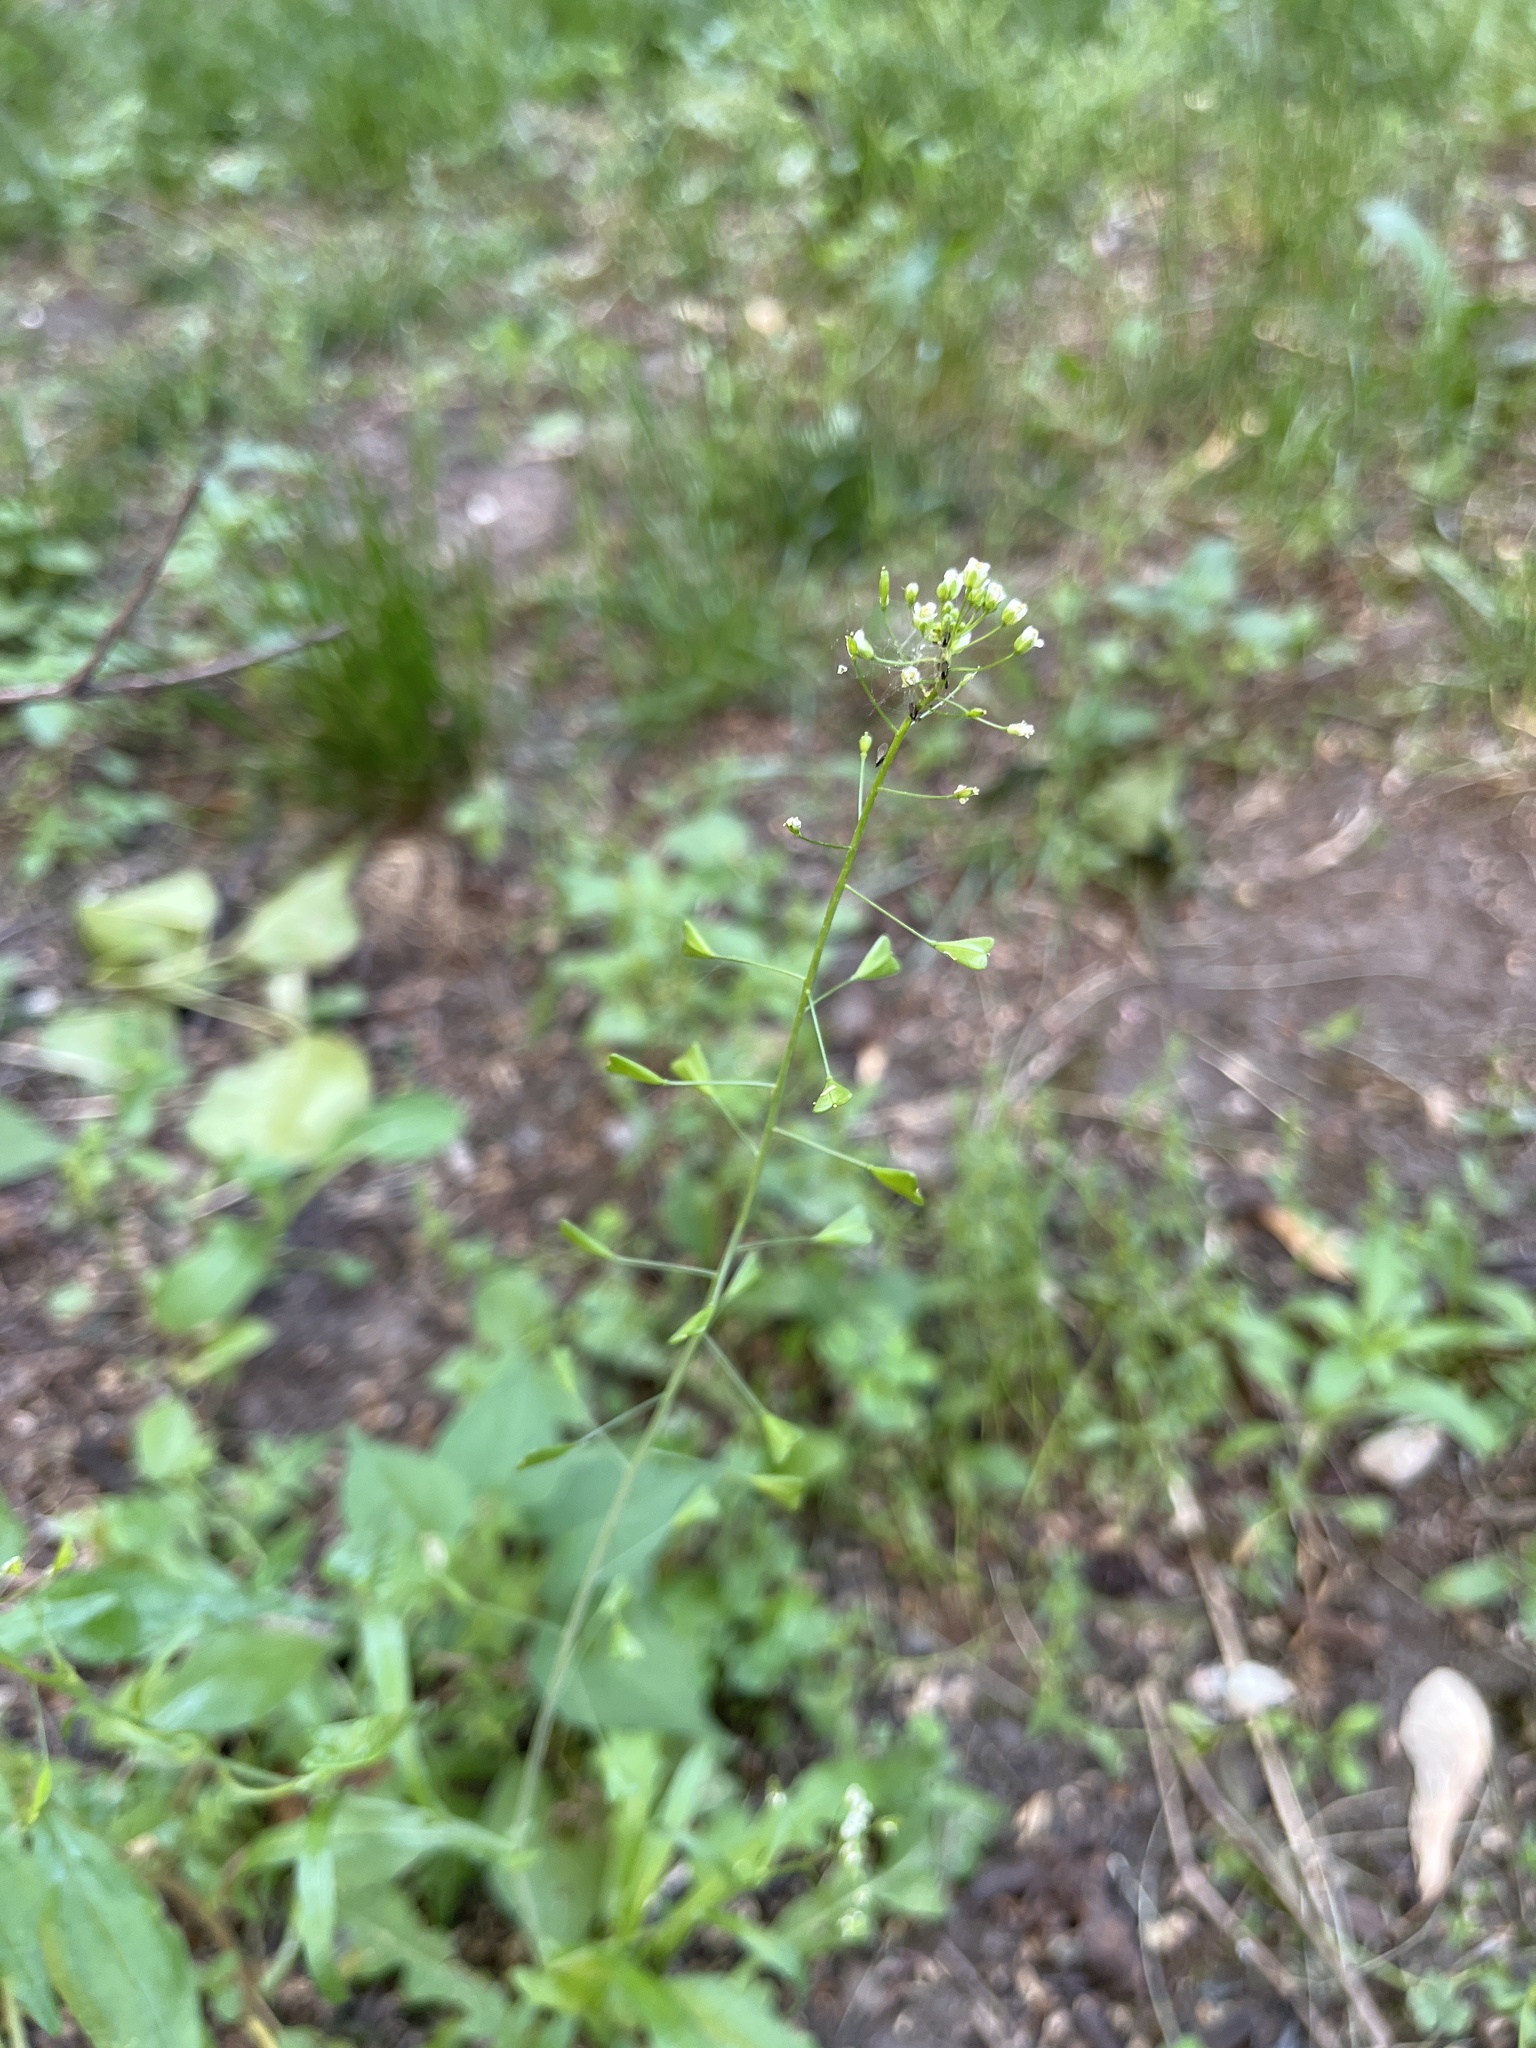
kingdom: Plantae
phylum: Tracheophyta
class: Magnoliopsida
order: Brassicales
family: Brassicaceae
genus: Capsella
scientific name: Capsella bursa-pastoris
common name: Shepherd's purse
